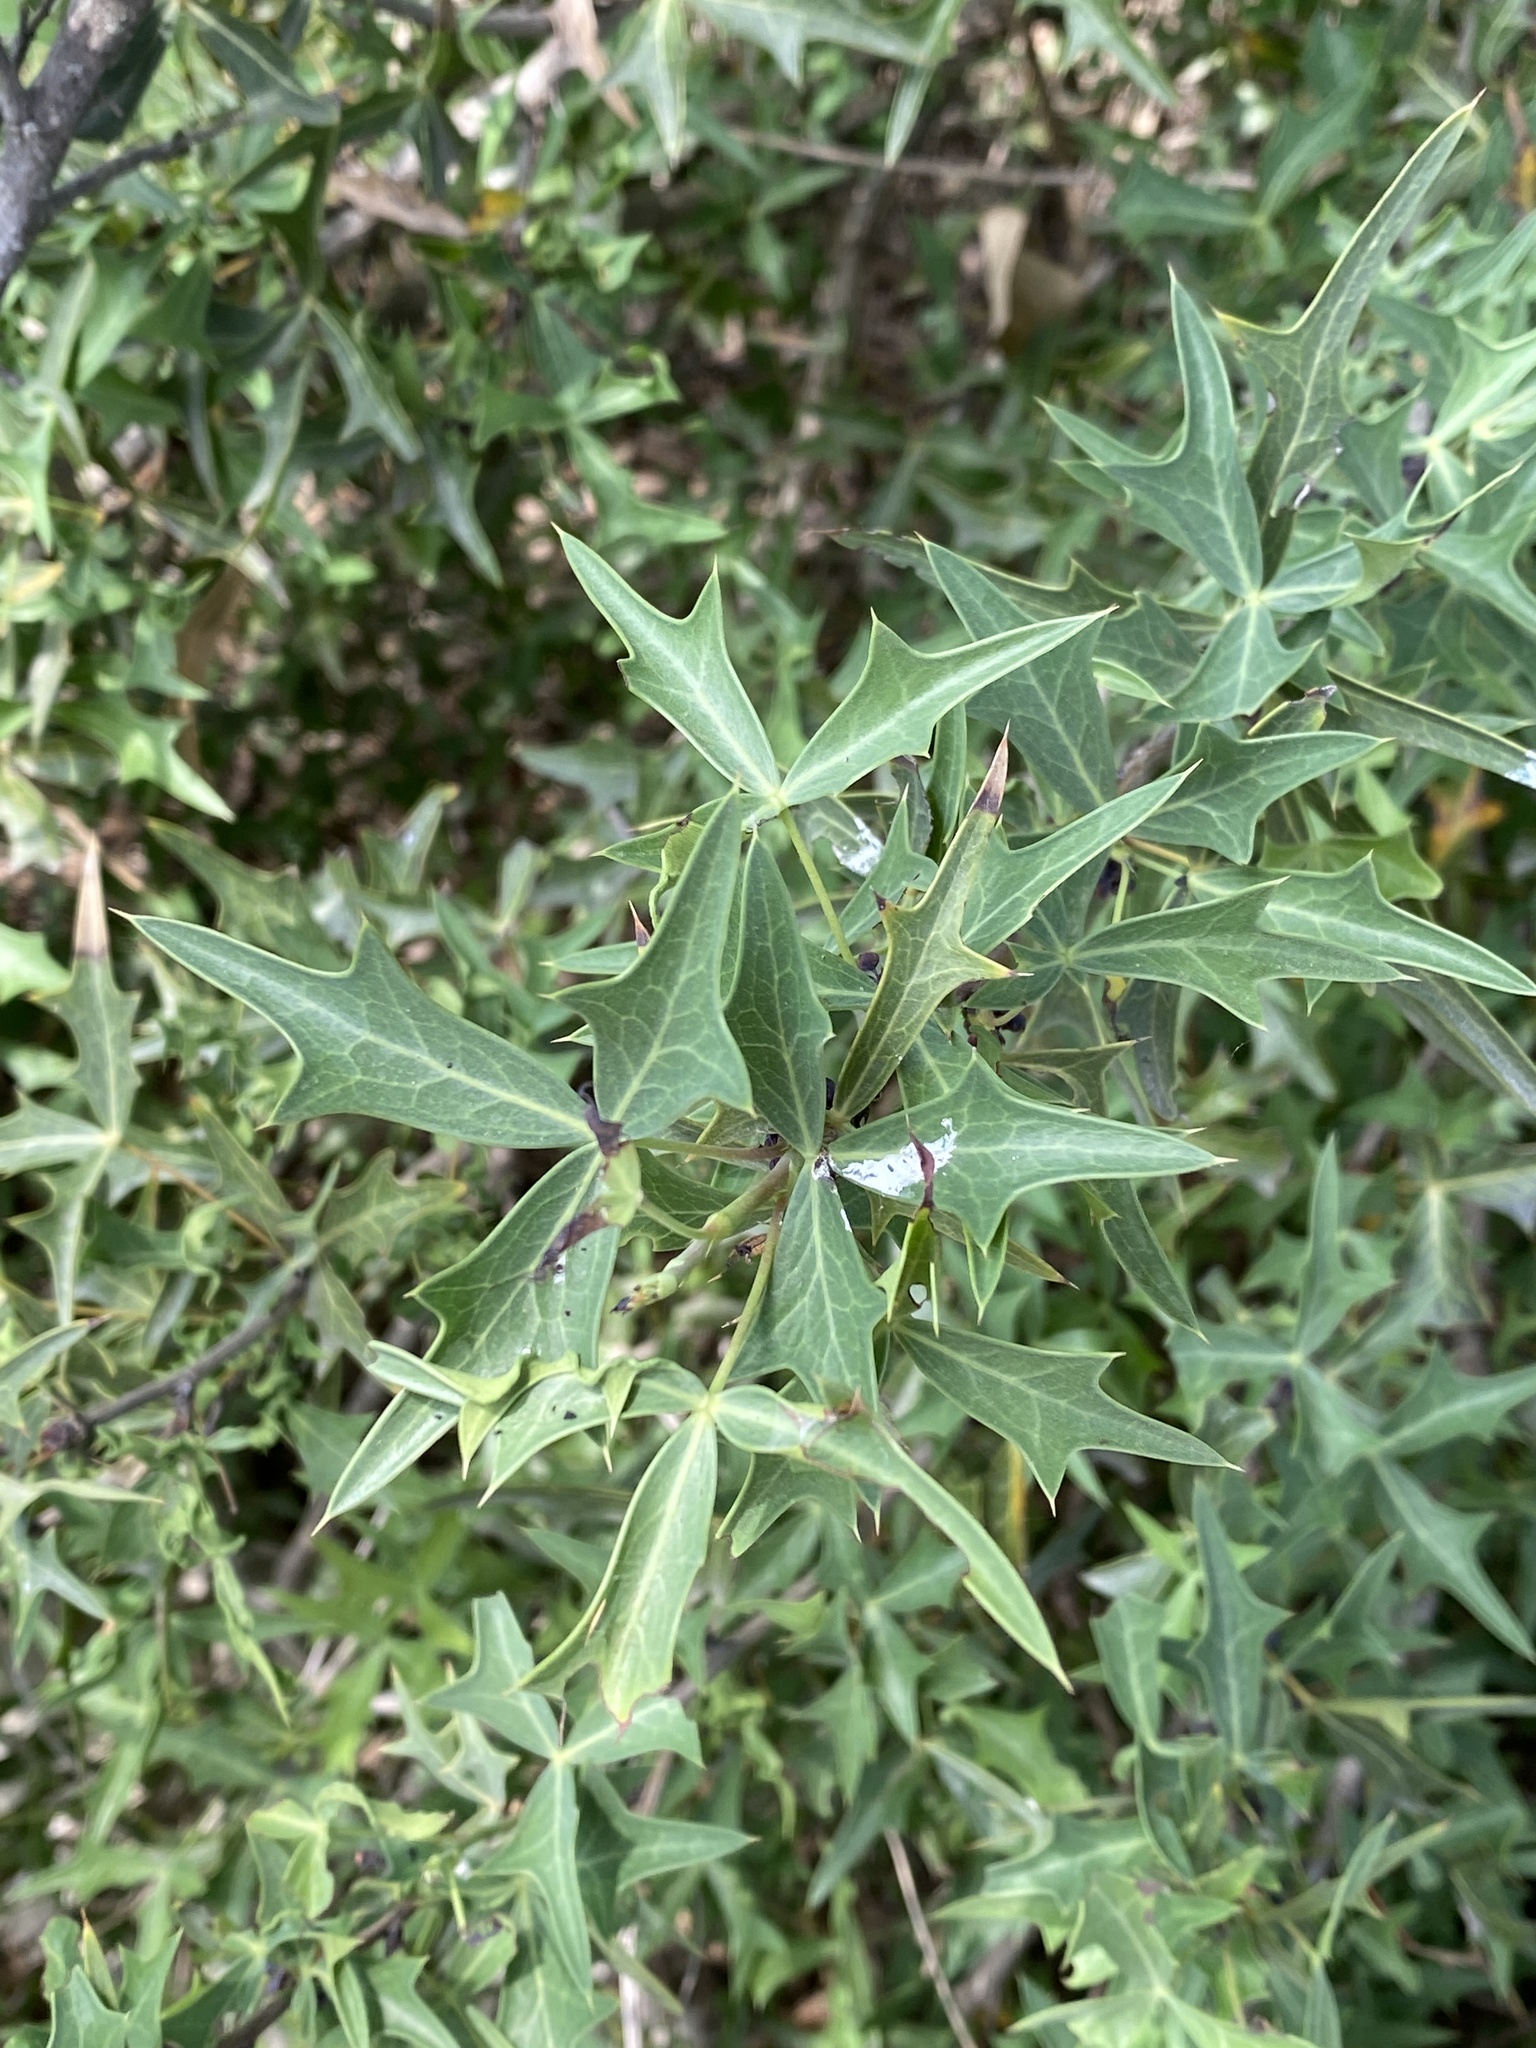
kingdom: Plantae
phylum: Tracheophyta
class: Magnoliopsida
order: Ranunculales
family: Berberidaceae
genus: Alloberberis
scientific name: Alloberberis trifoliolata
